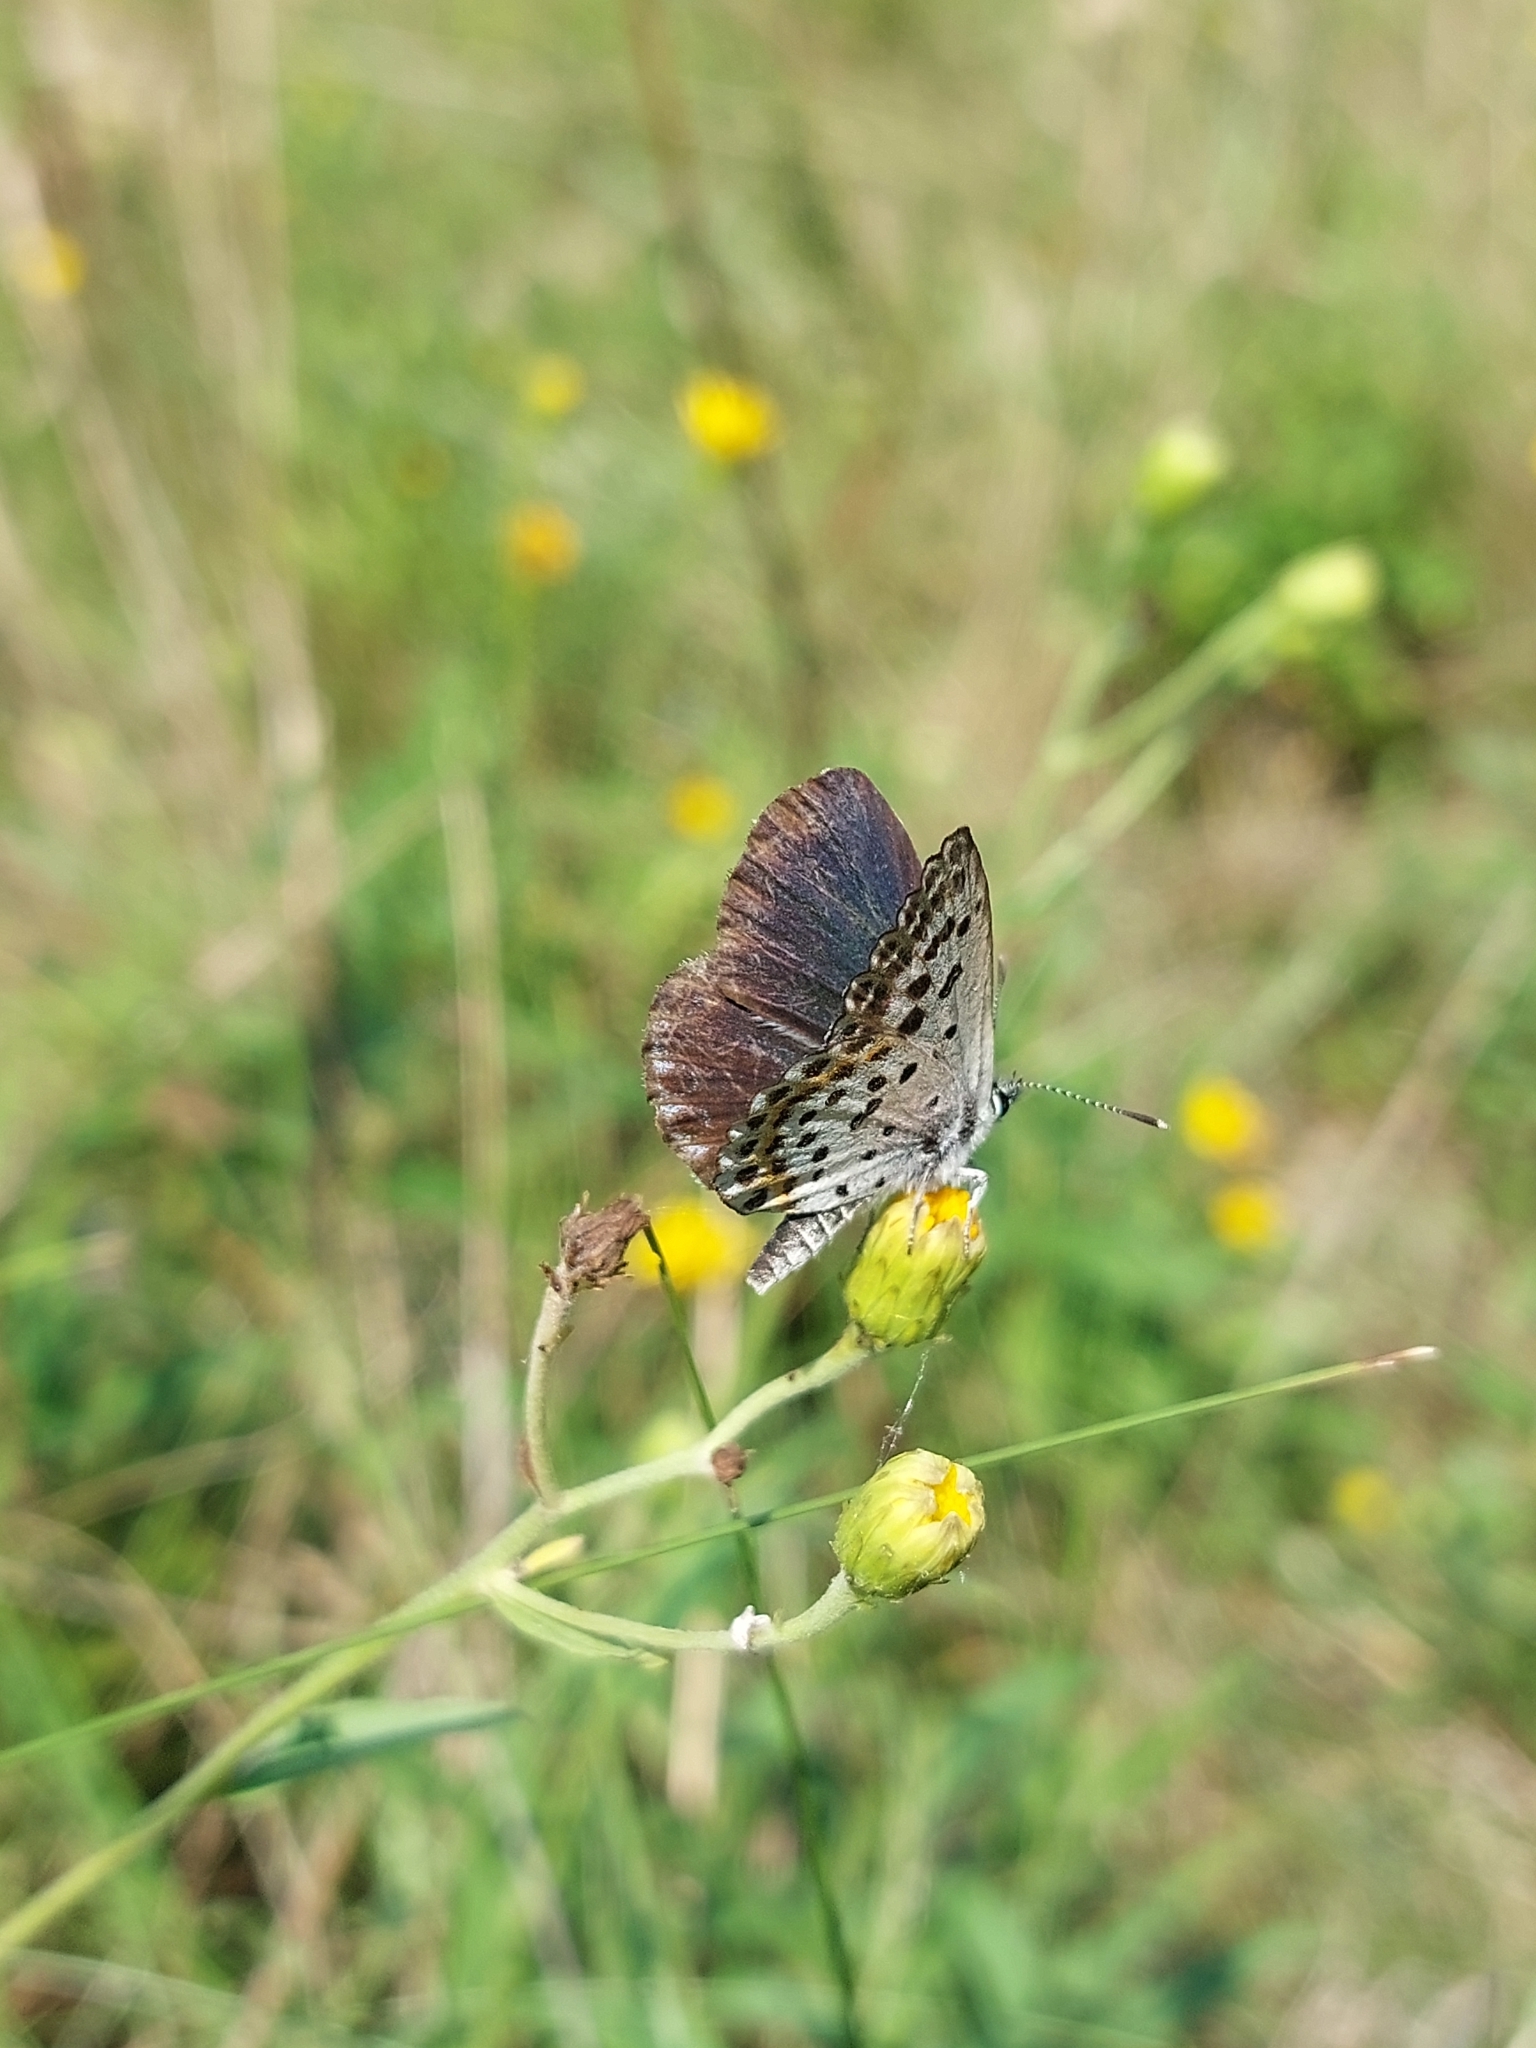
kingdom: Animalia
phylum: Arthropoda
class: Insecta
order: Lepidoptera
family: Lycaenidae
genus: Scolitantides
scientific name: Scolitantides orion
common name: Chequered blue
